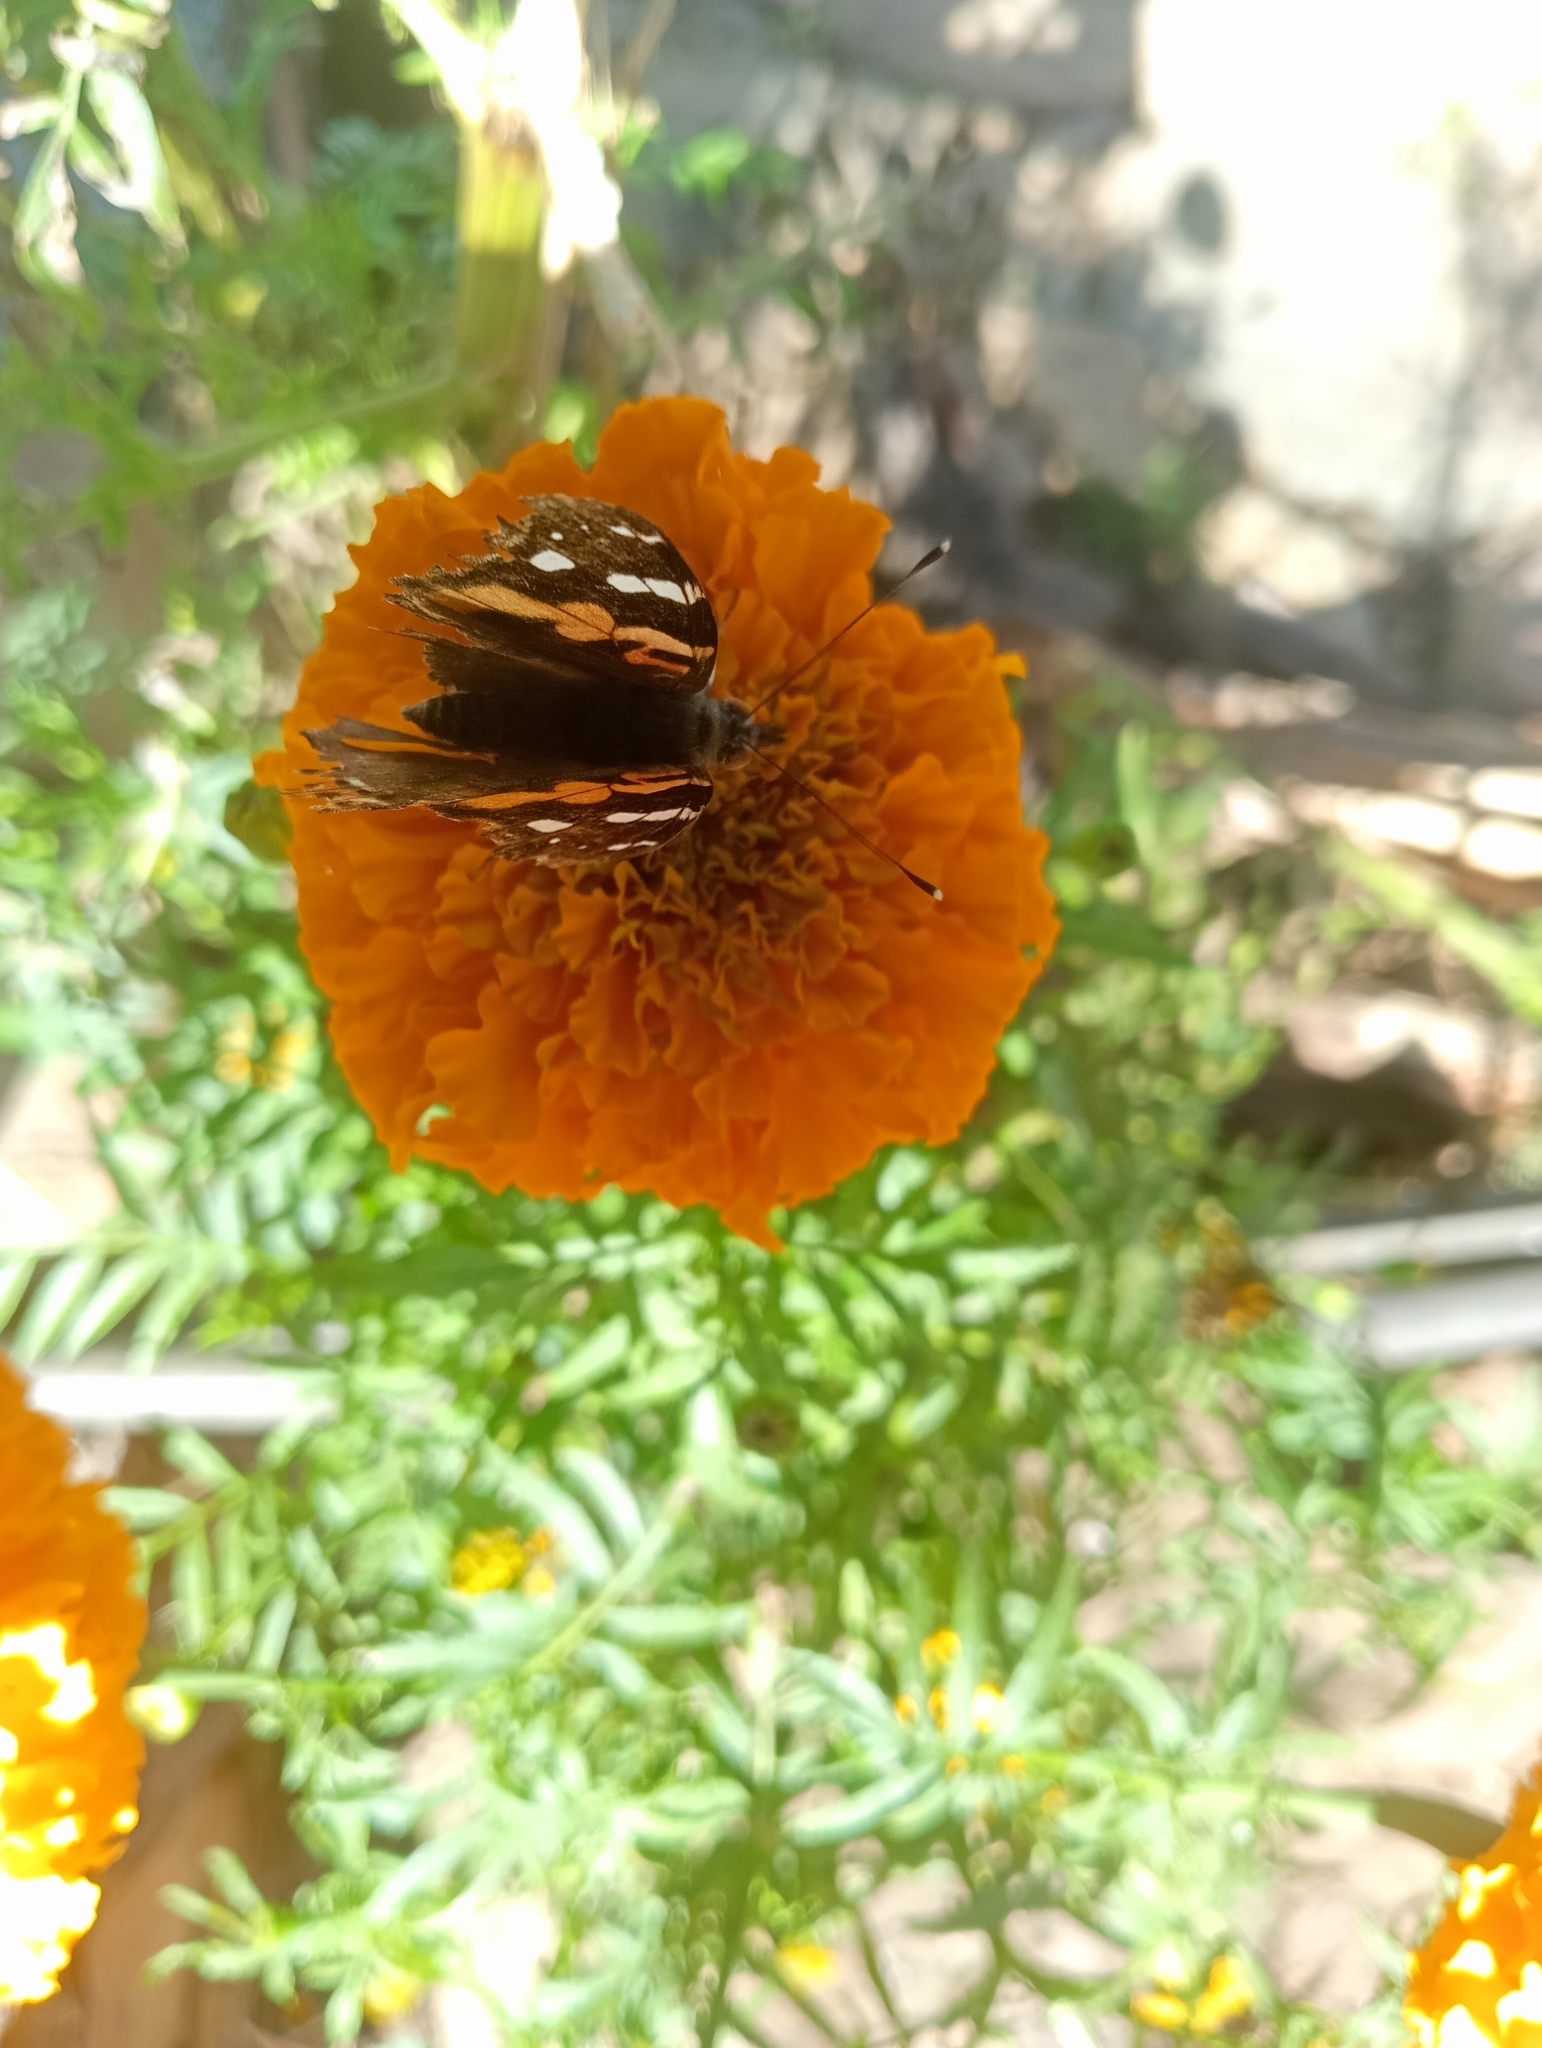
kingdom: Animalia
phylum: Arthropoda
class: Insecta
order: Lepidoptera
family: Nymphalidae
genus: Vanessa
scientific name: Vanessa indica
